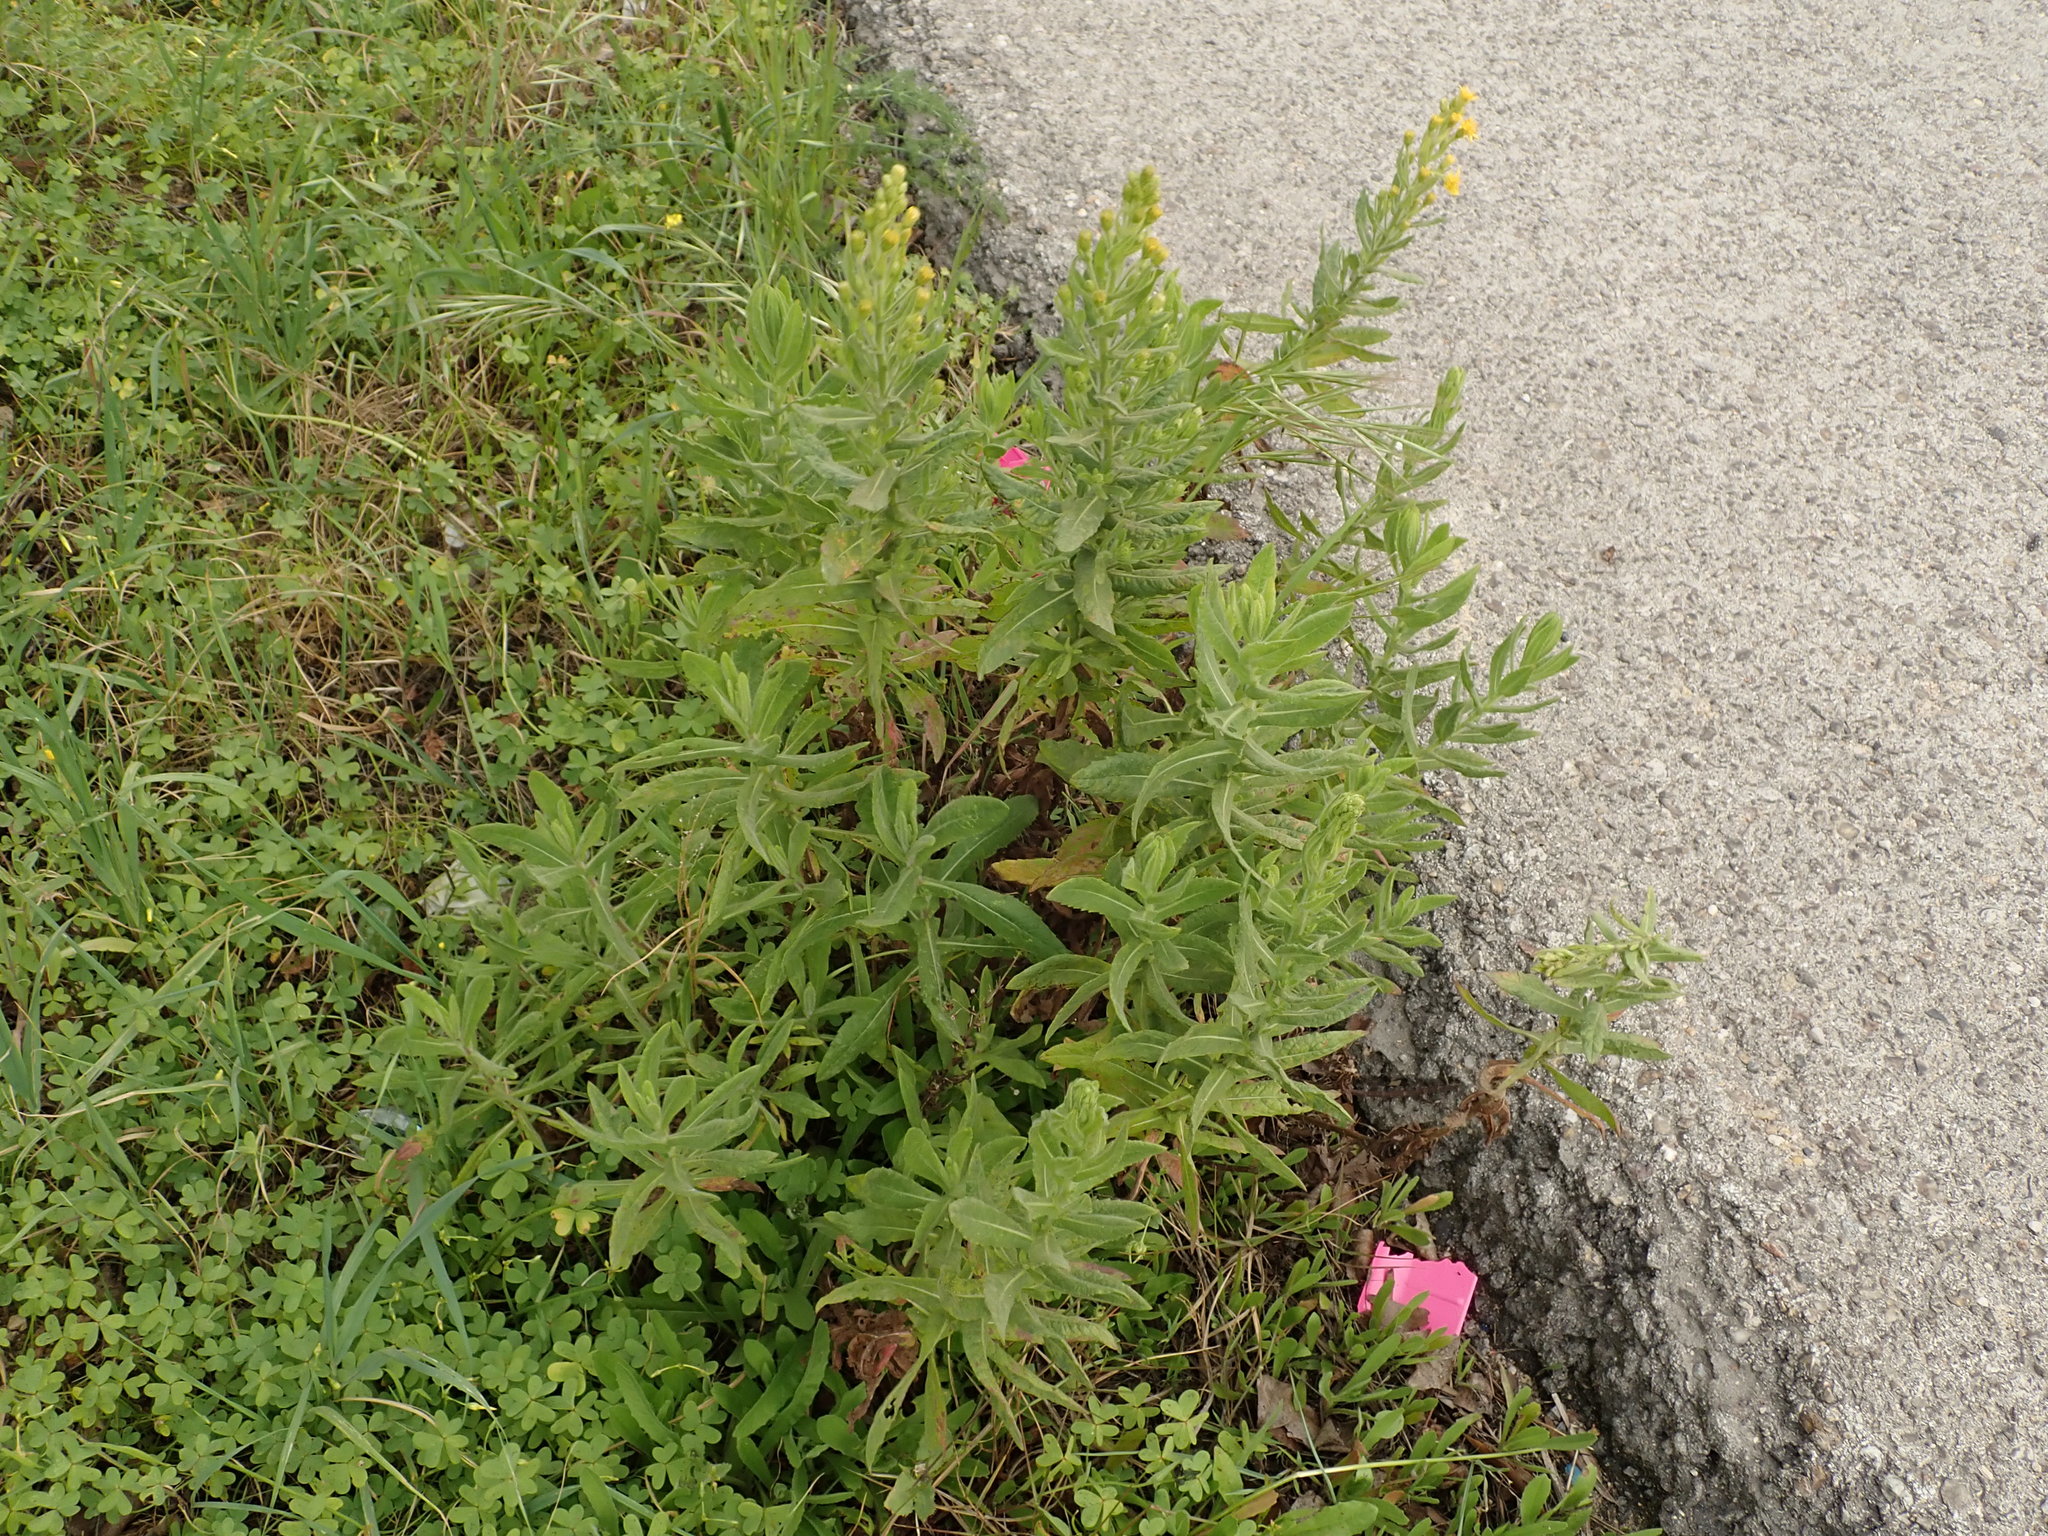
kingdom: Plantae
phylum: Tracheophyta
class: Magnoliopsida
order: Asterales
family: Asteraceae
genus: Dittrichia
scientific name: Dittrichia viscosa
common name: Woody fleabane
